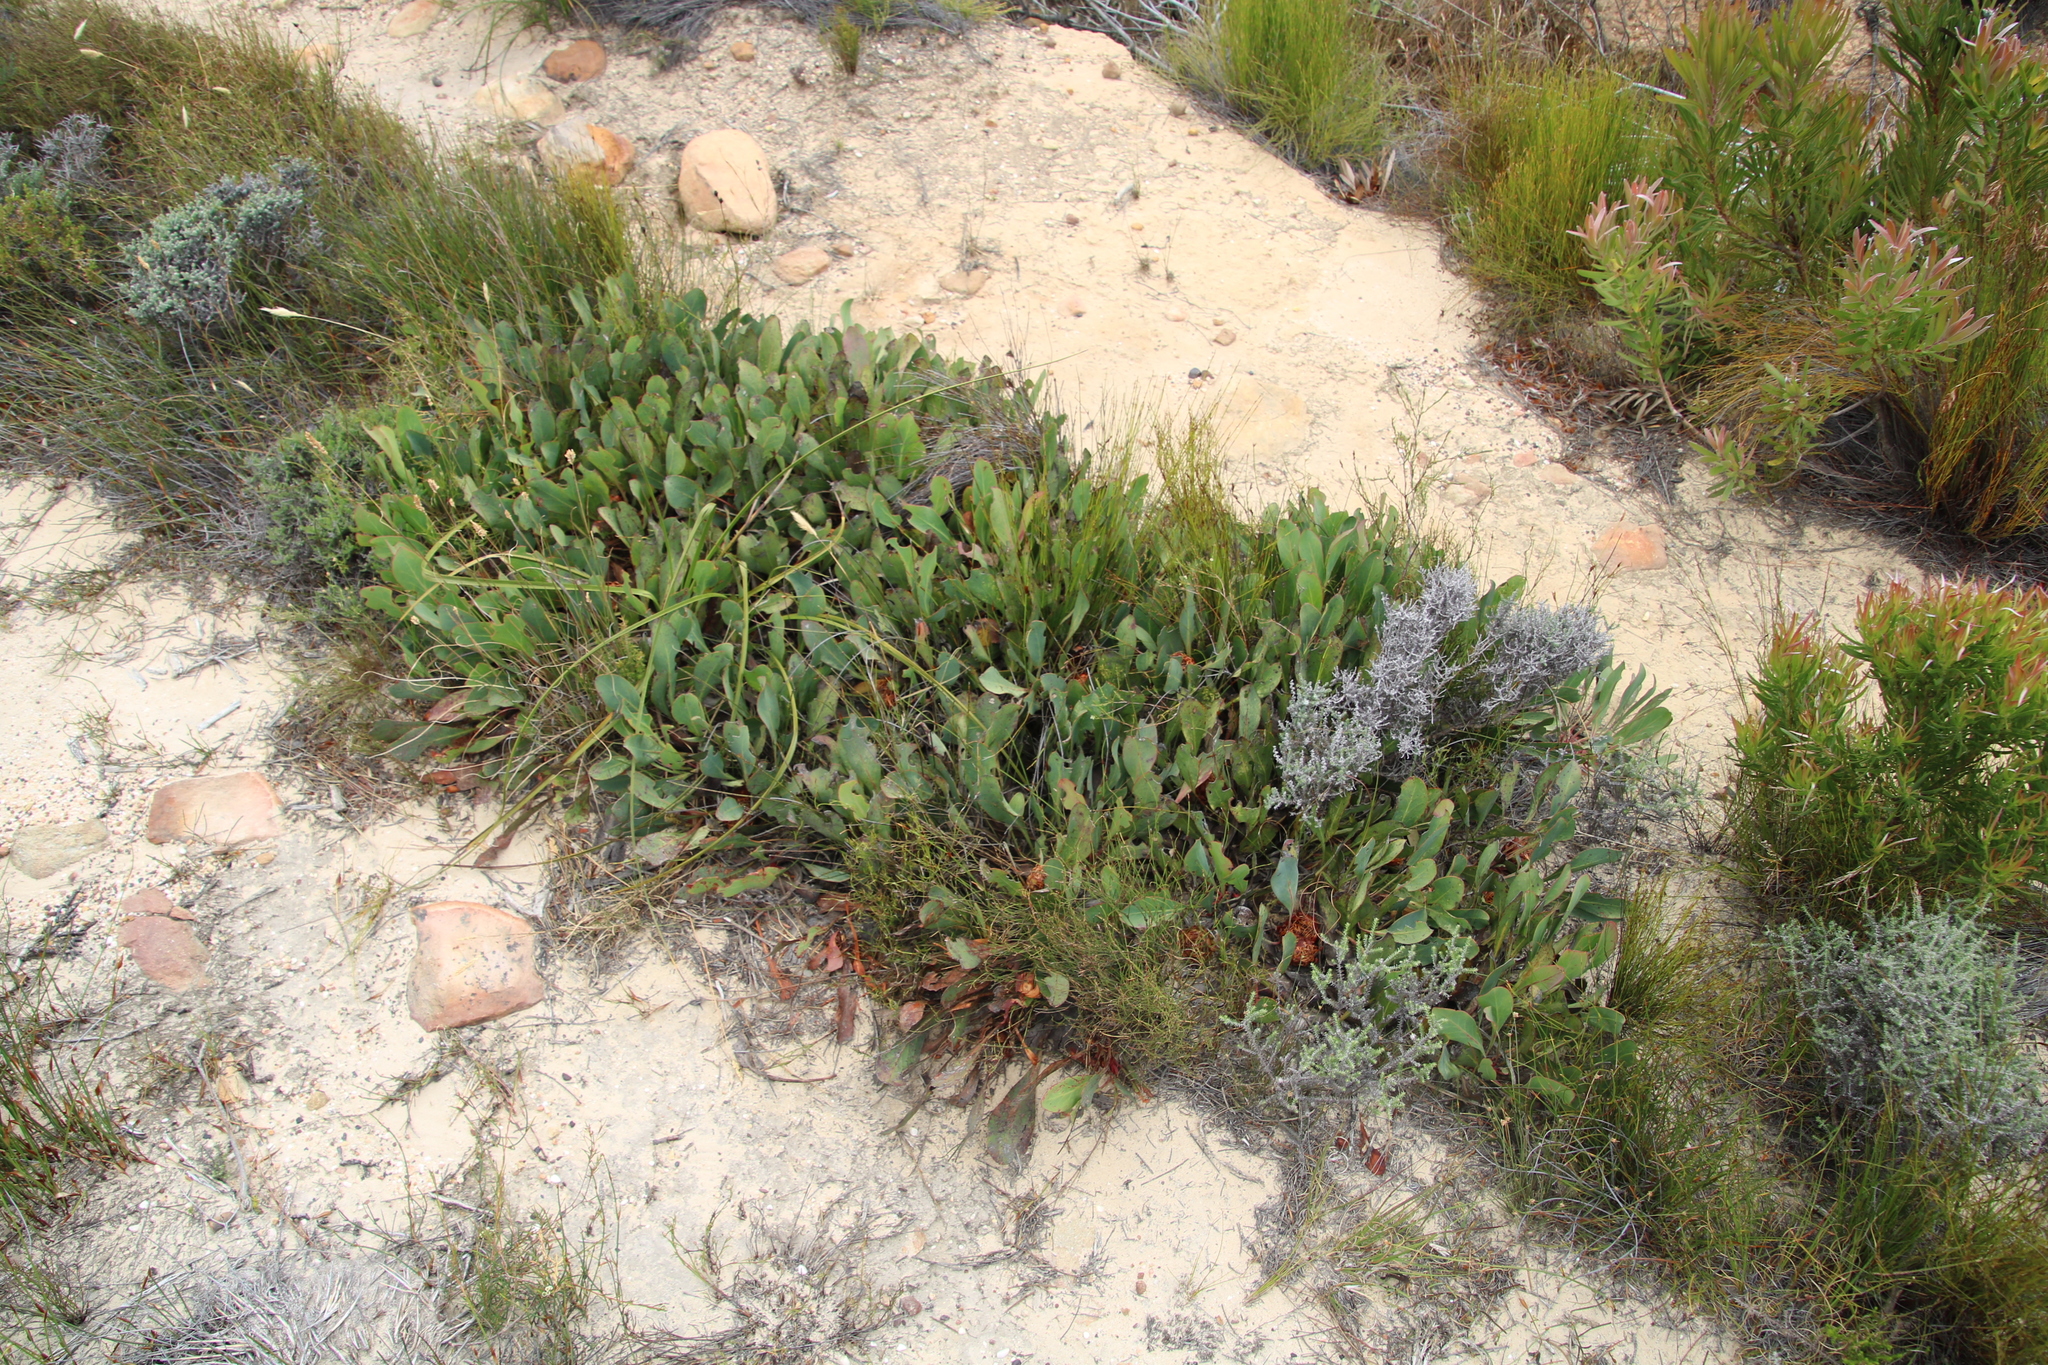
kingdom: Plantae
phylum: Tracheophyta
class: Magnoliopsida
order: Proteales
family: Proteaceae
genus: Protea
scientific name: Protea acaulos
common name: Common ground sugarbush
